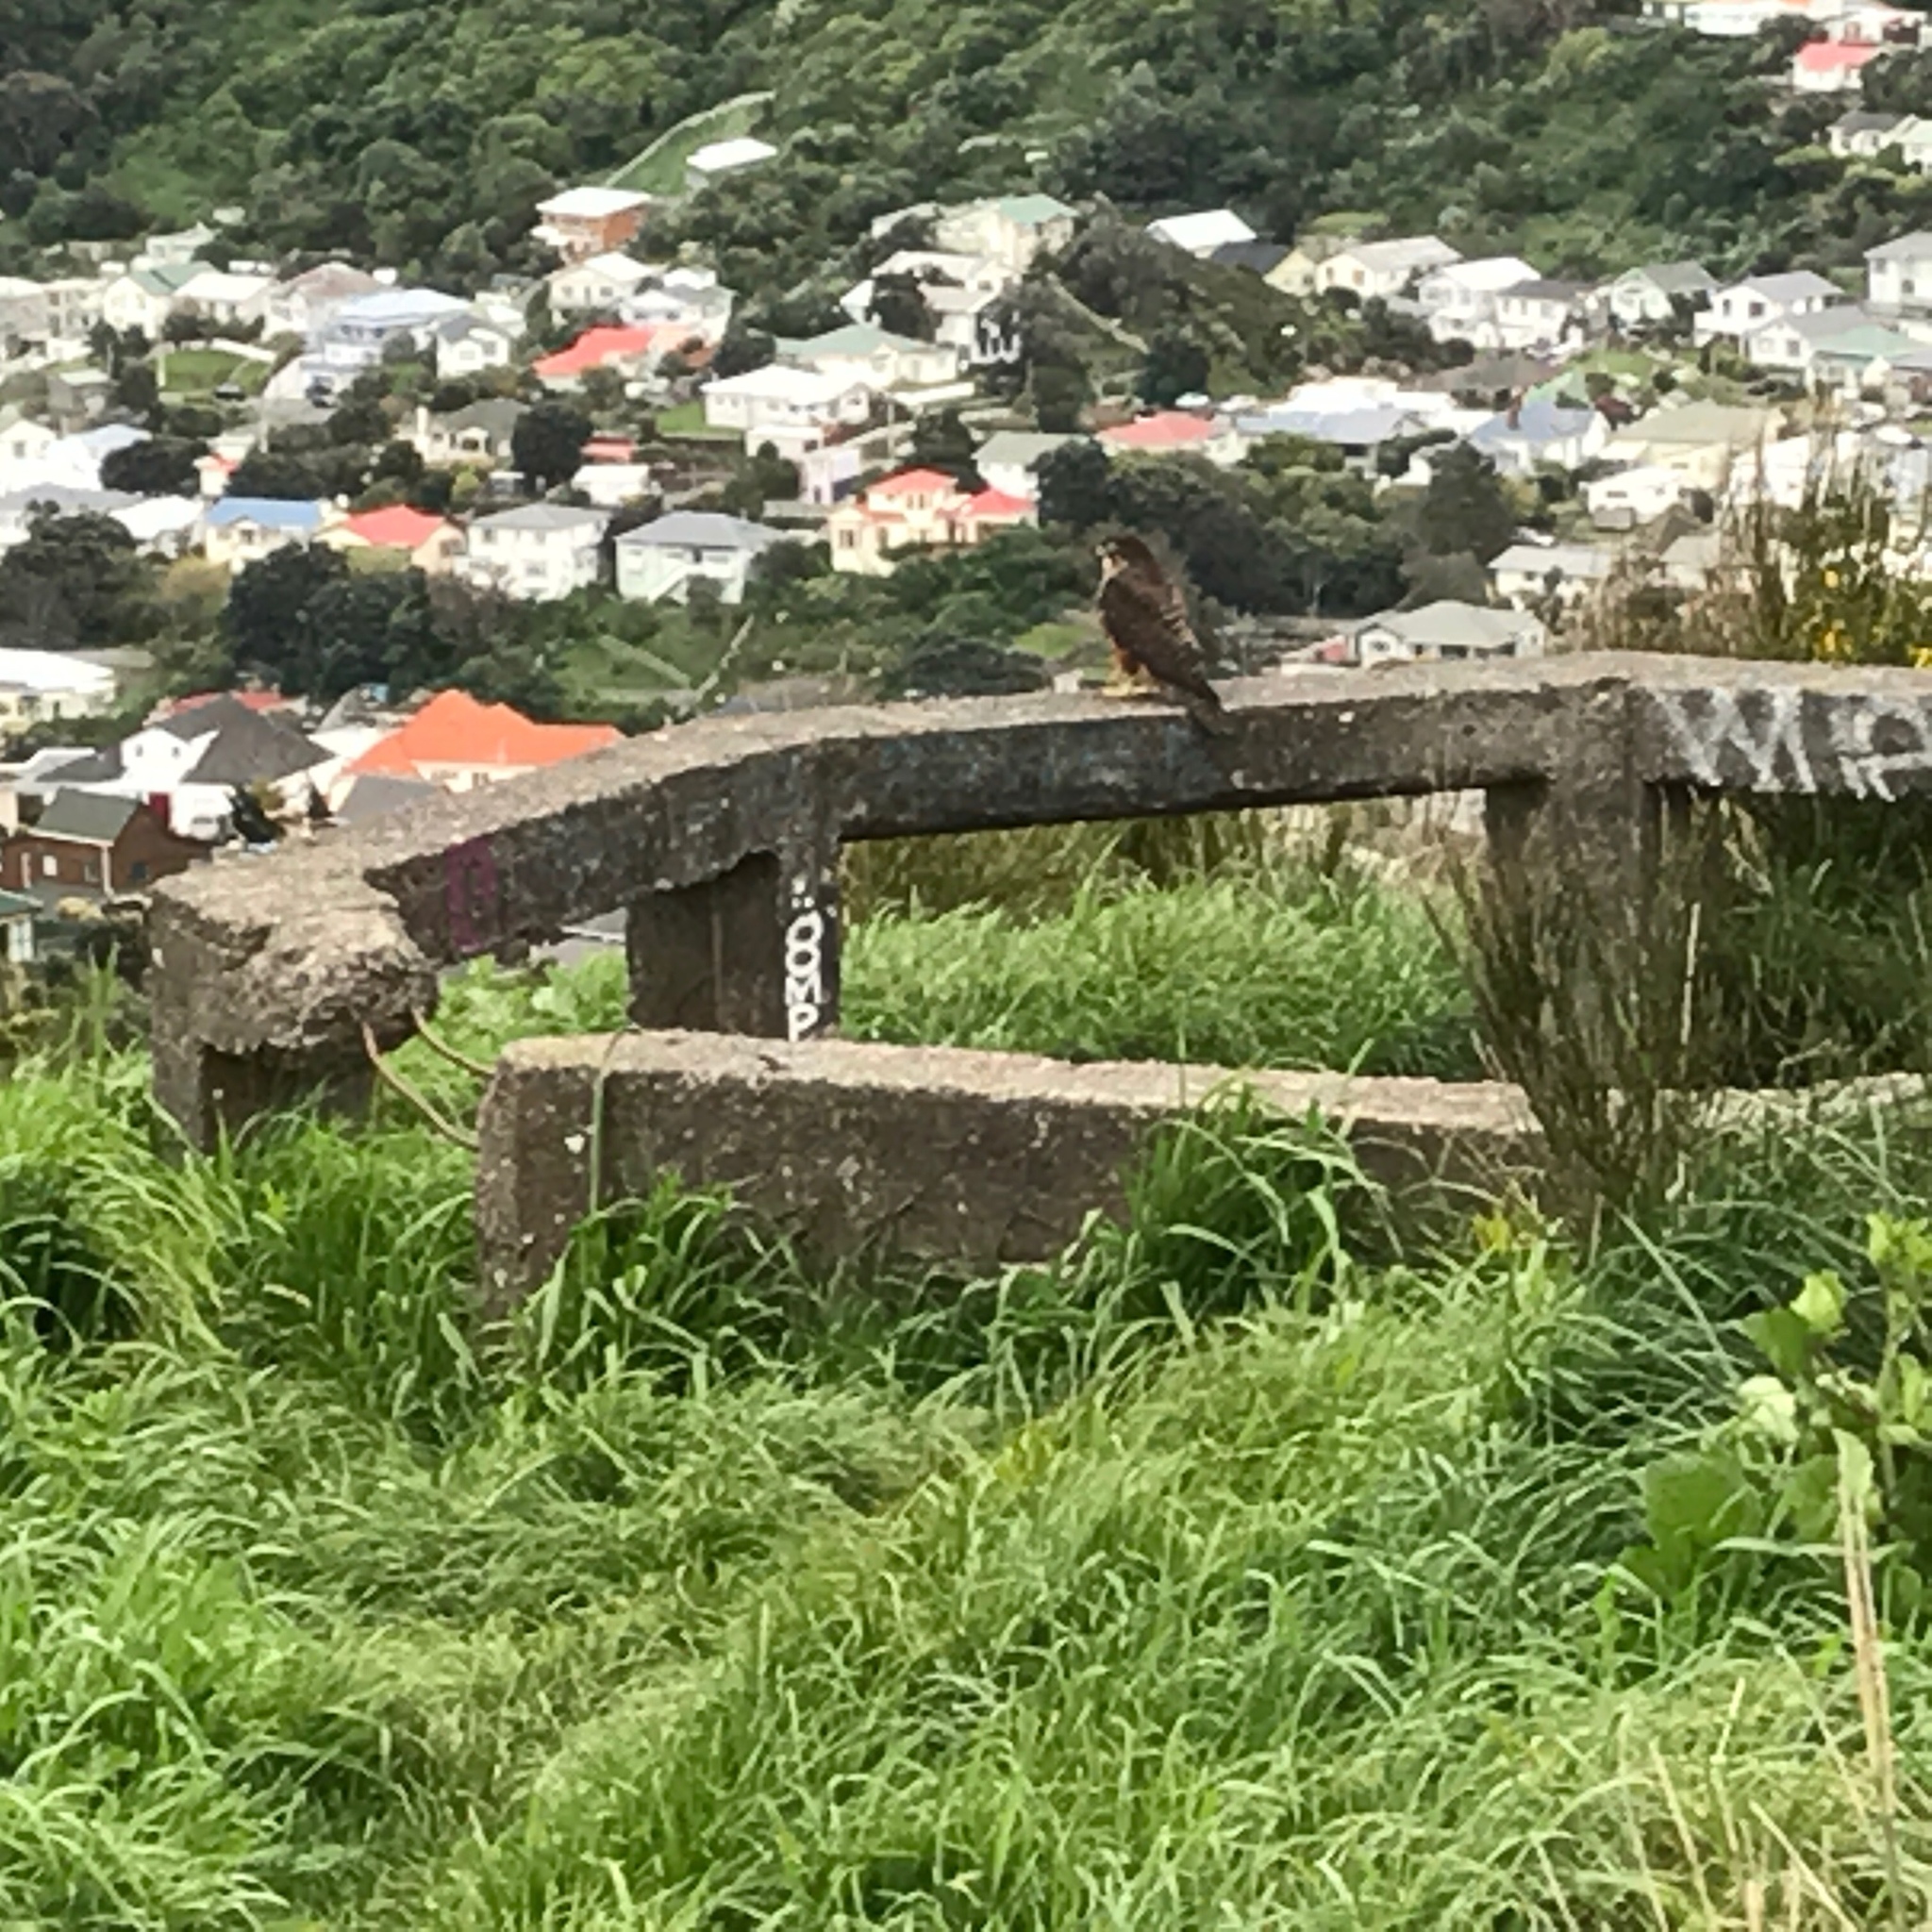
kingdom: Animalia
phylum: Chordata
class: Aves
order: Falconiformes
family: Falconidae
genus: Falco
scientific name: Falco novaeseelandiae
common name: New zealand falcon
